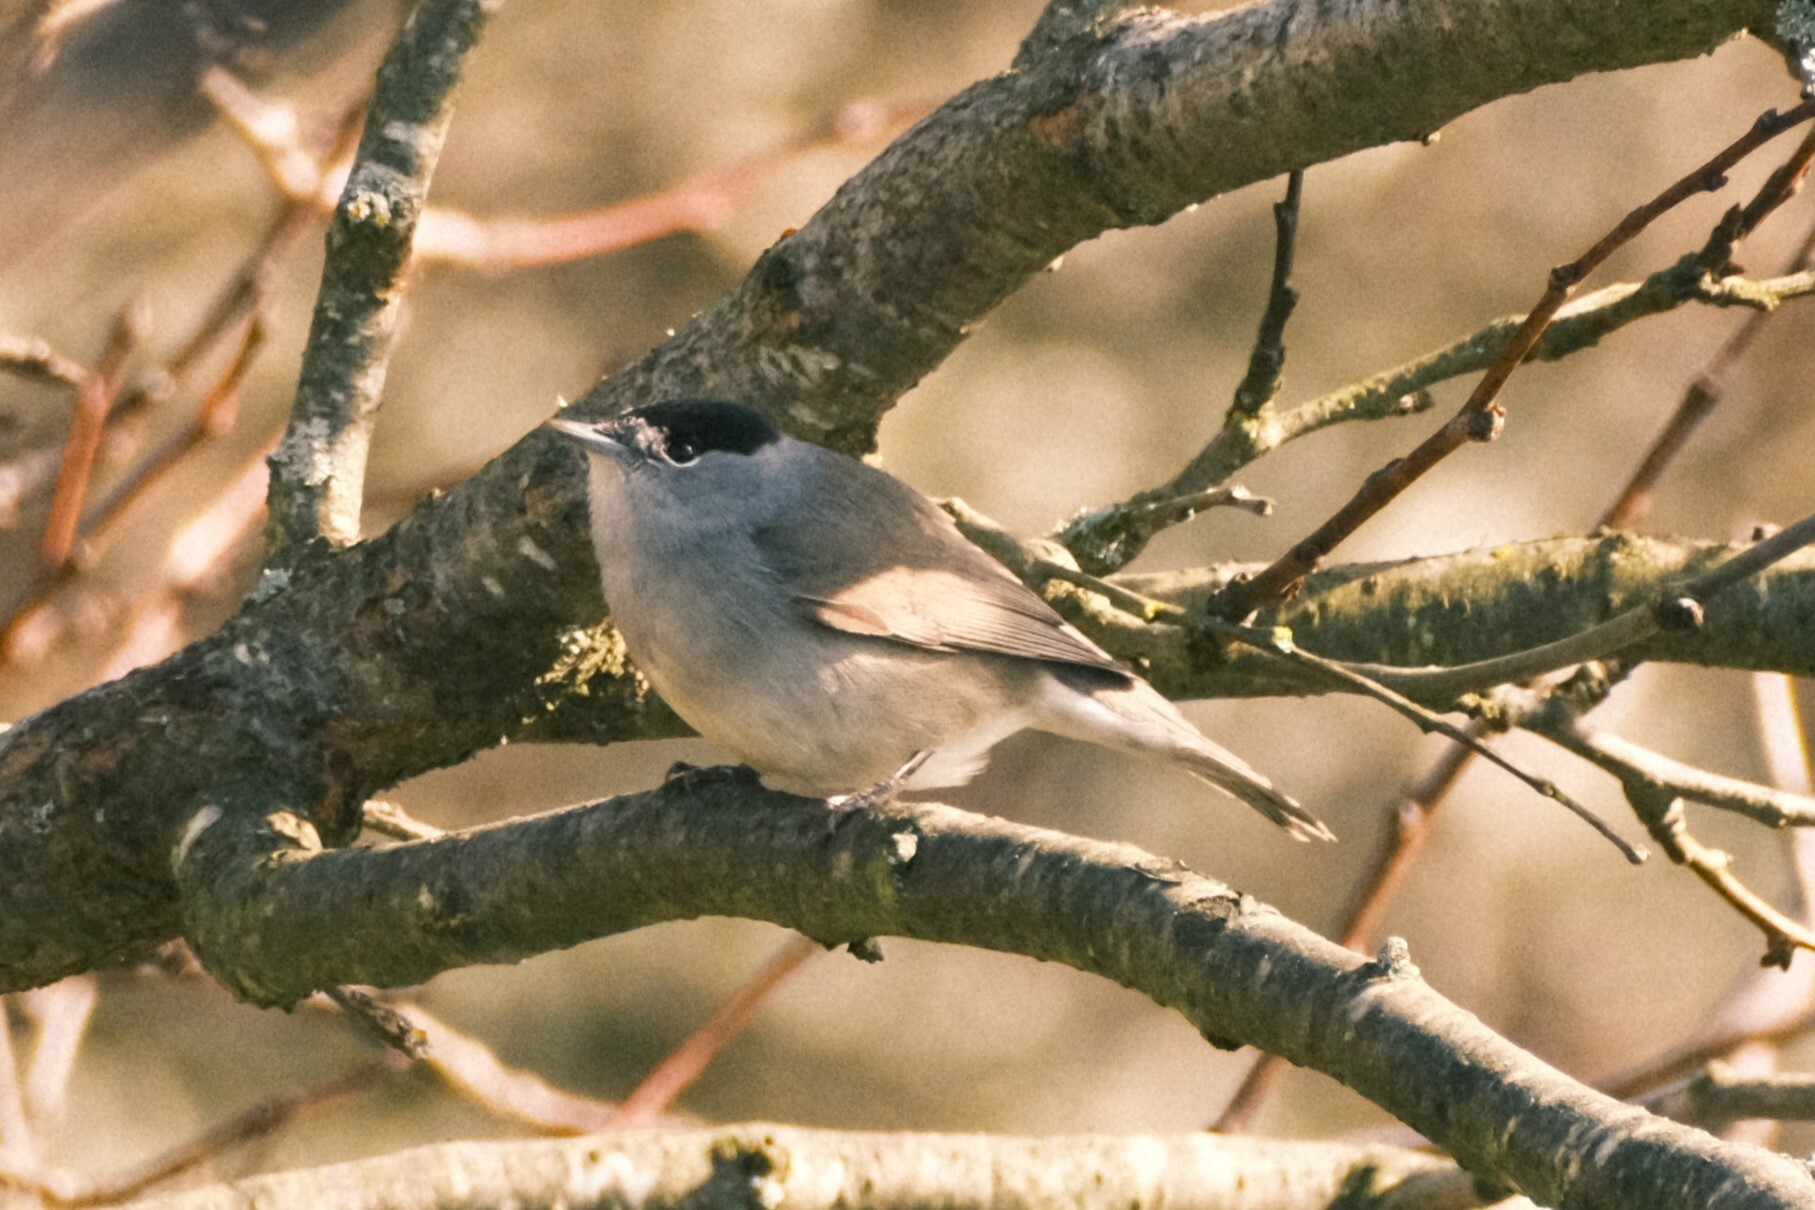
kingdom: Animalia
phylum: Chordata
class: Aves
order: Passeriformes
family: Sylviidae
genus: Sylvia
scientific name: Sylvia atricapilla
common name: Eurasian blackcap
